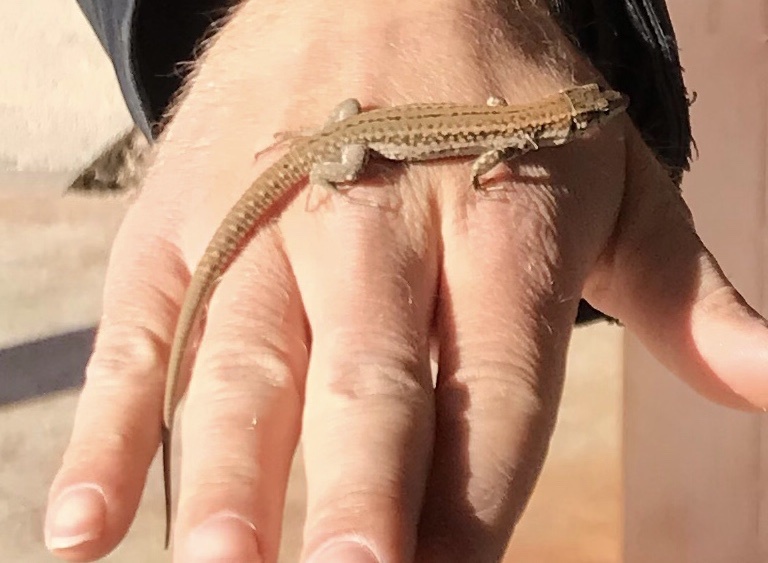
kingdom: Animalia
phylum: Chordata
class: Squamata
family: Lacertidae
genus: Podarcis
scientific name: Podarcis liolepis
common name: Catalonian wall lizard
